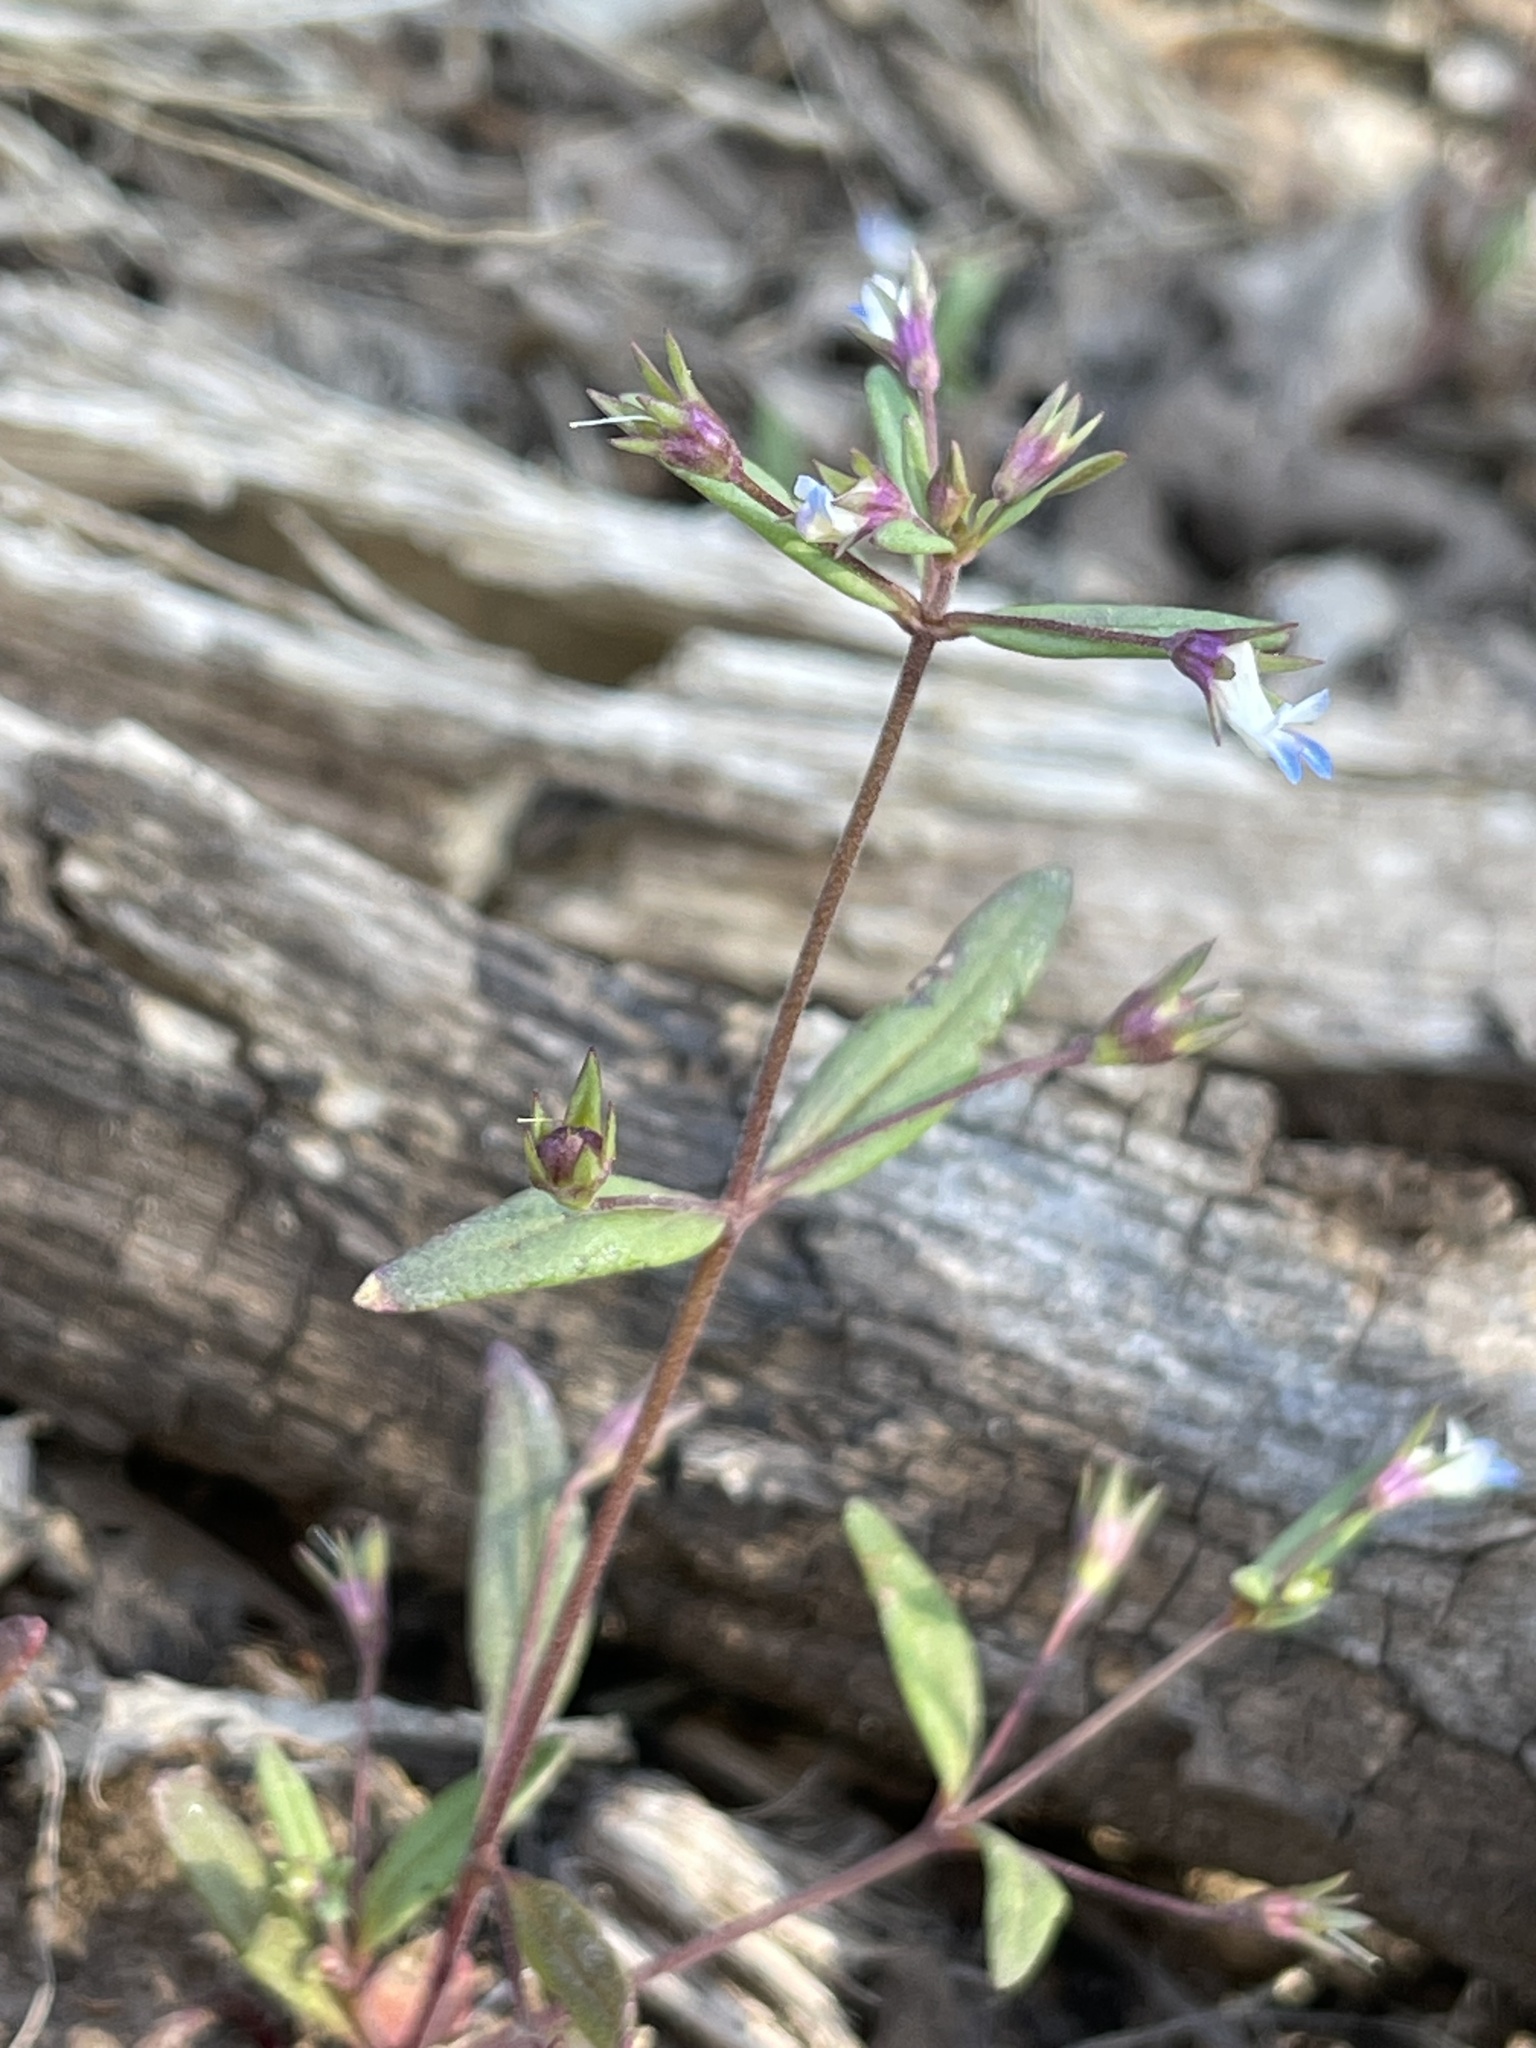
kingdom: Plantae
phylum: Tracheophyta
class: Magnoliopsida
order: Lamiales
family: Plantaginaceae
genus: Collinsia
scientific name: Collinsia parviflora
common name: Blue-lips
